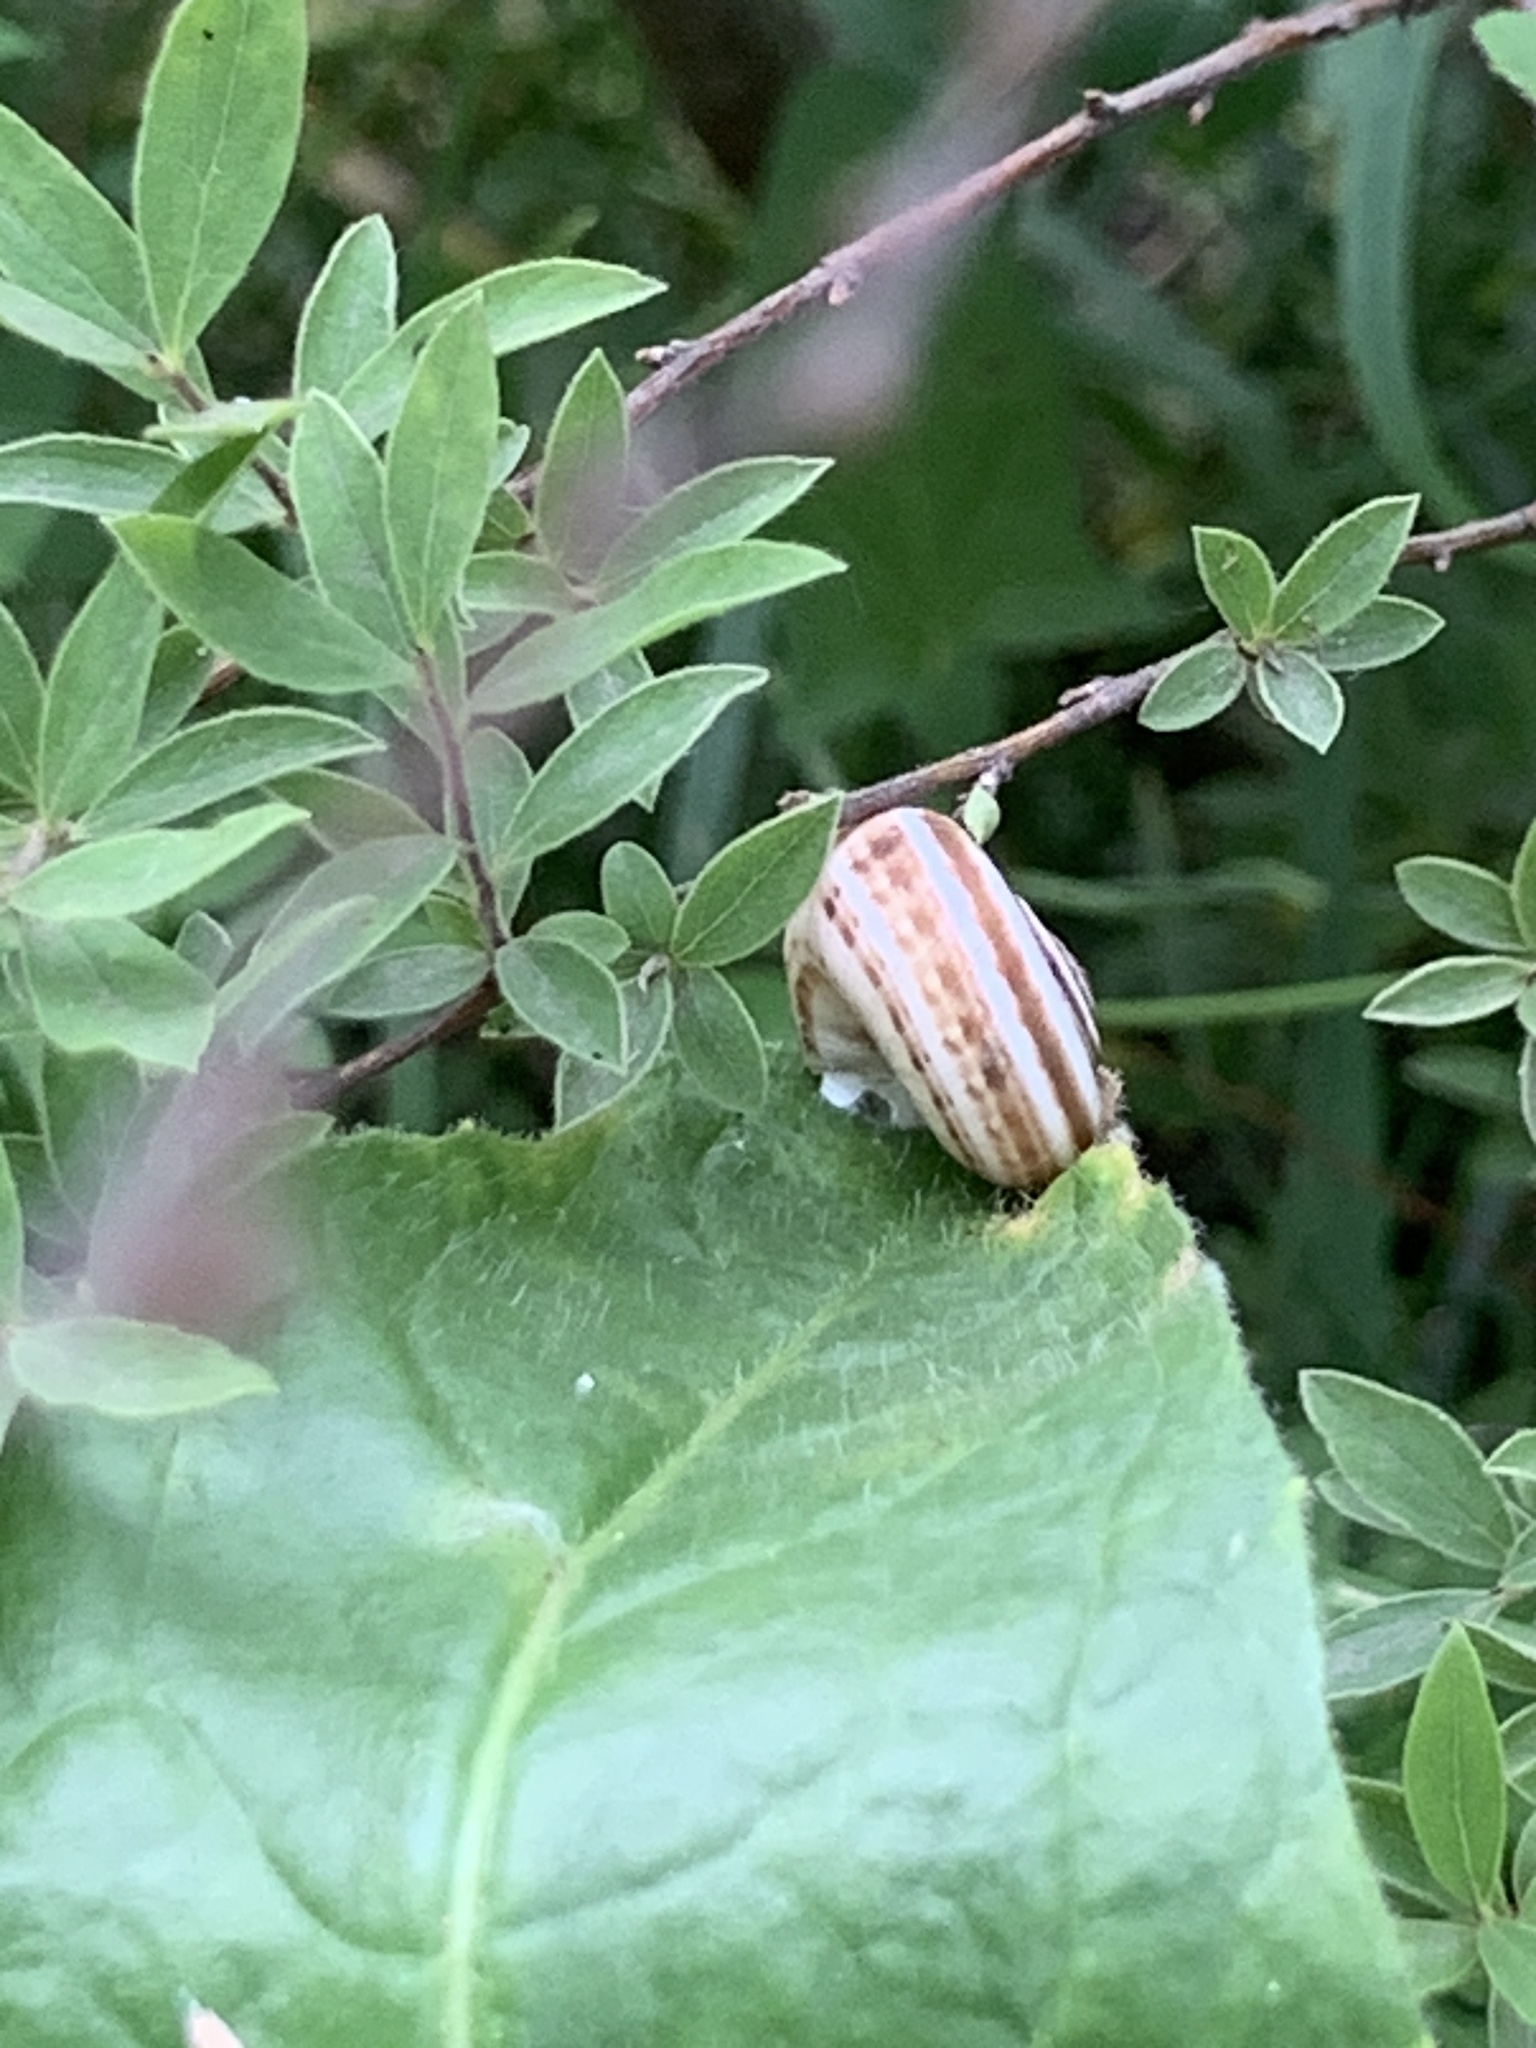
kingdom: Animalia
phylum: Mollusca
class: Gastropoda
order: Stylommatophora
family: Geomitridae
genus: Xeropicta
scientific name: Xeropicta derbentina
